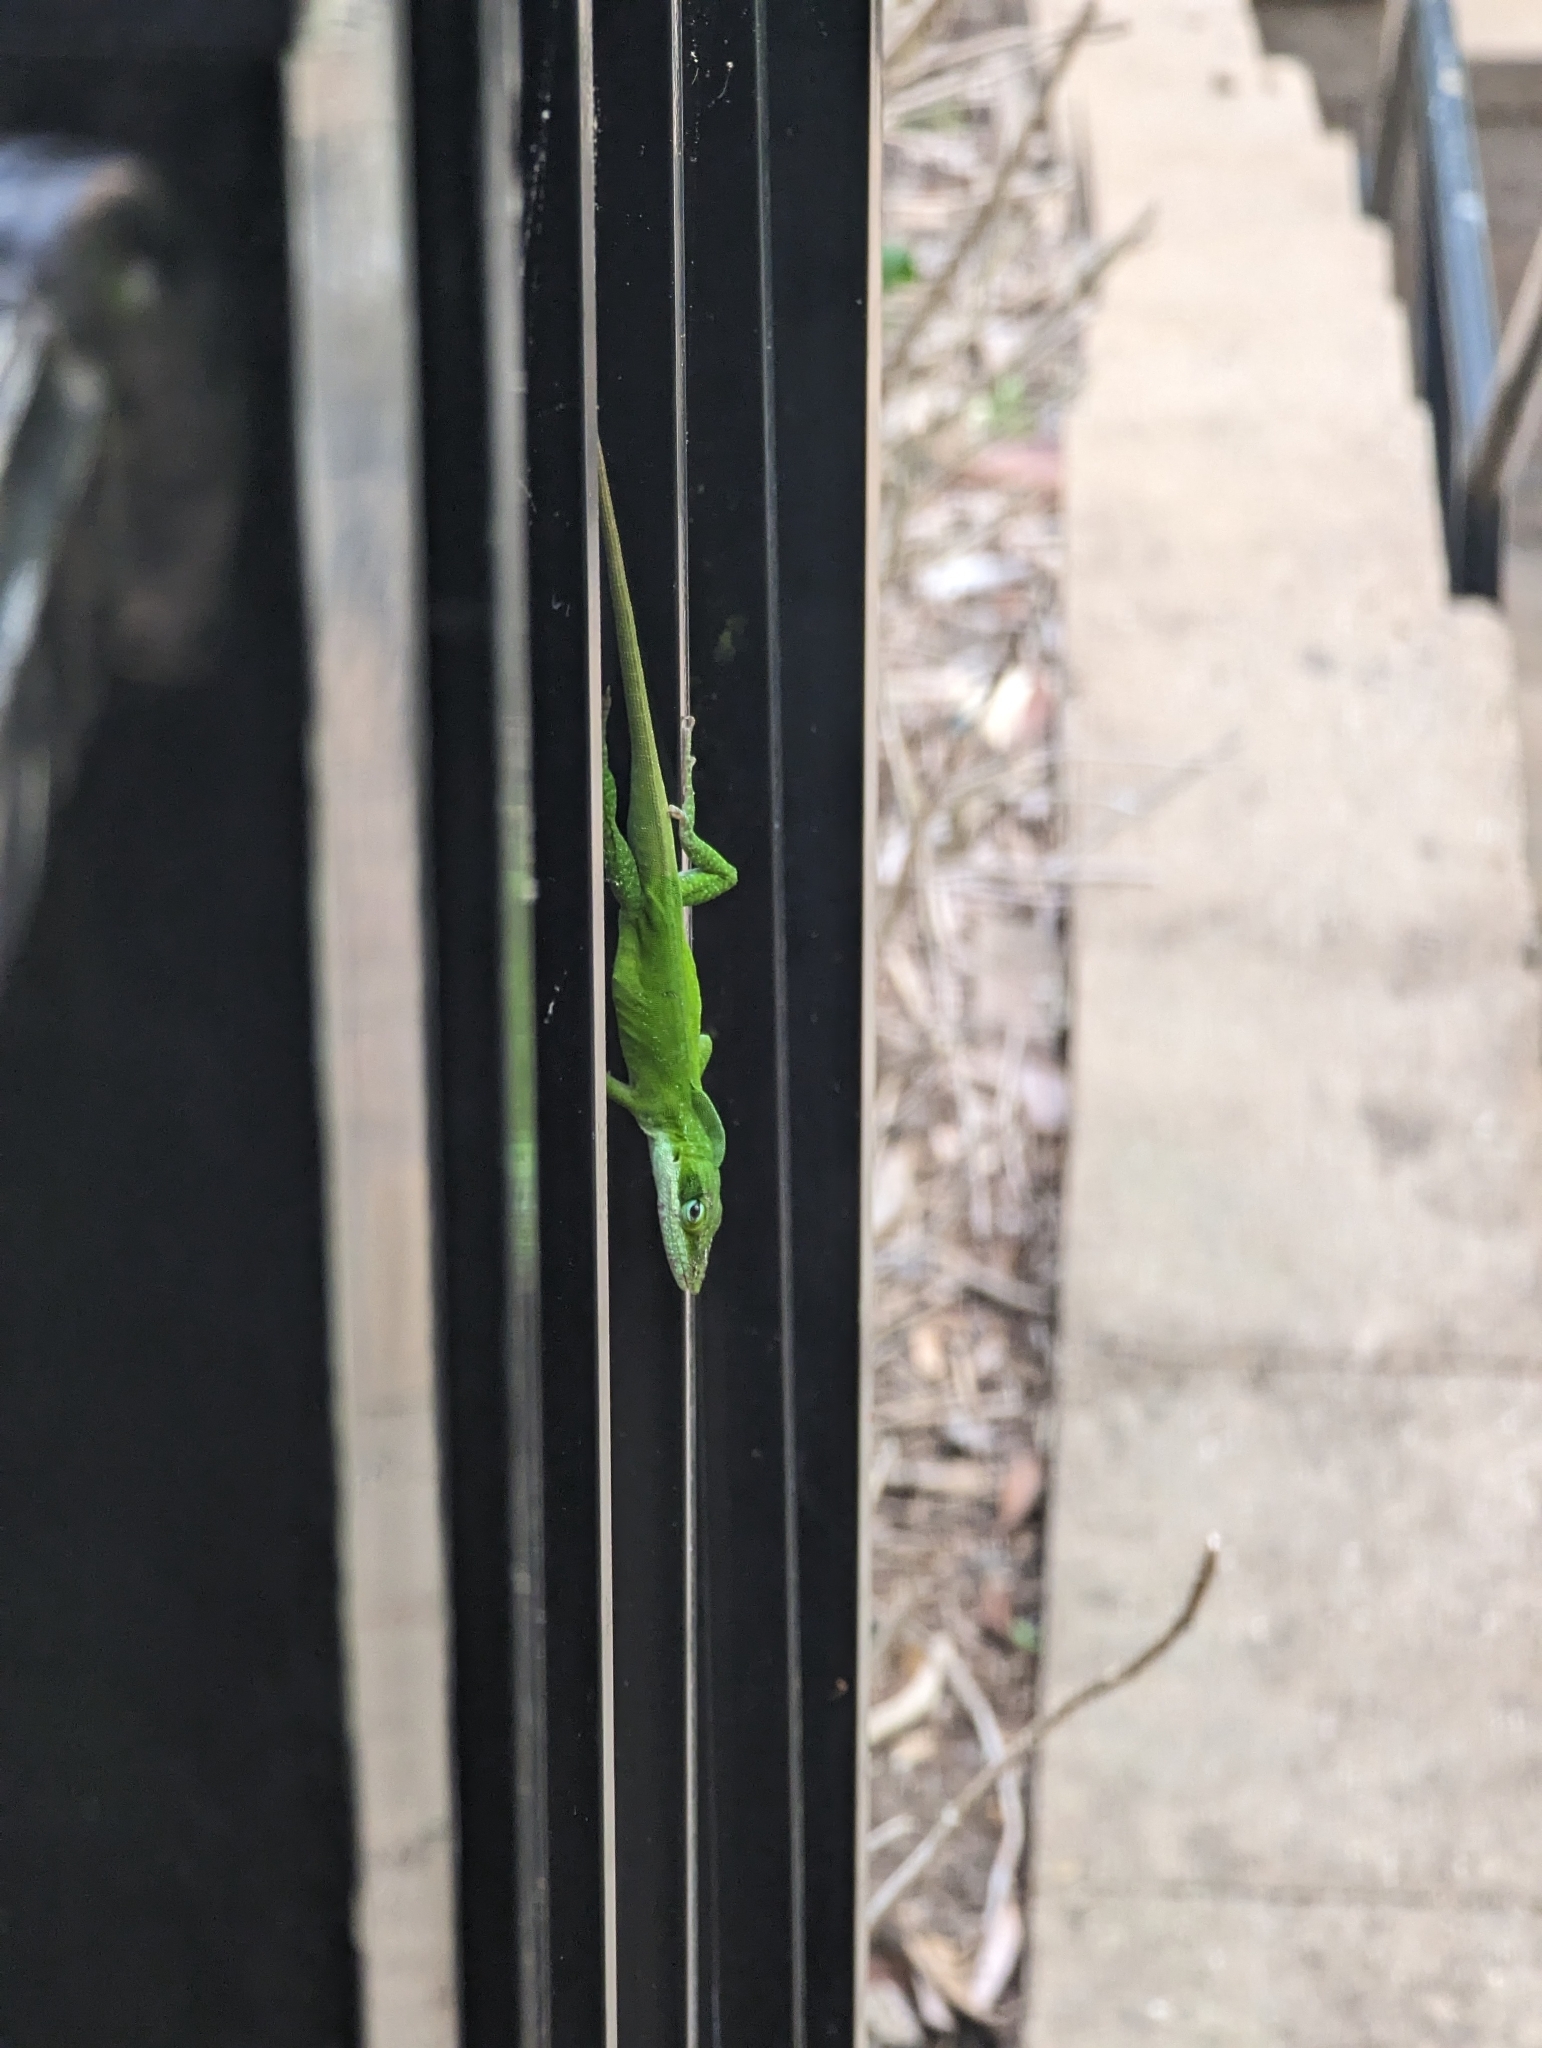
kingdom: Animalia
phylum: Chordata
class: Squamata
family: Dactyloidae
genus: Anolis
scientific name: Anolis carolinensis
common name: Green anole
